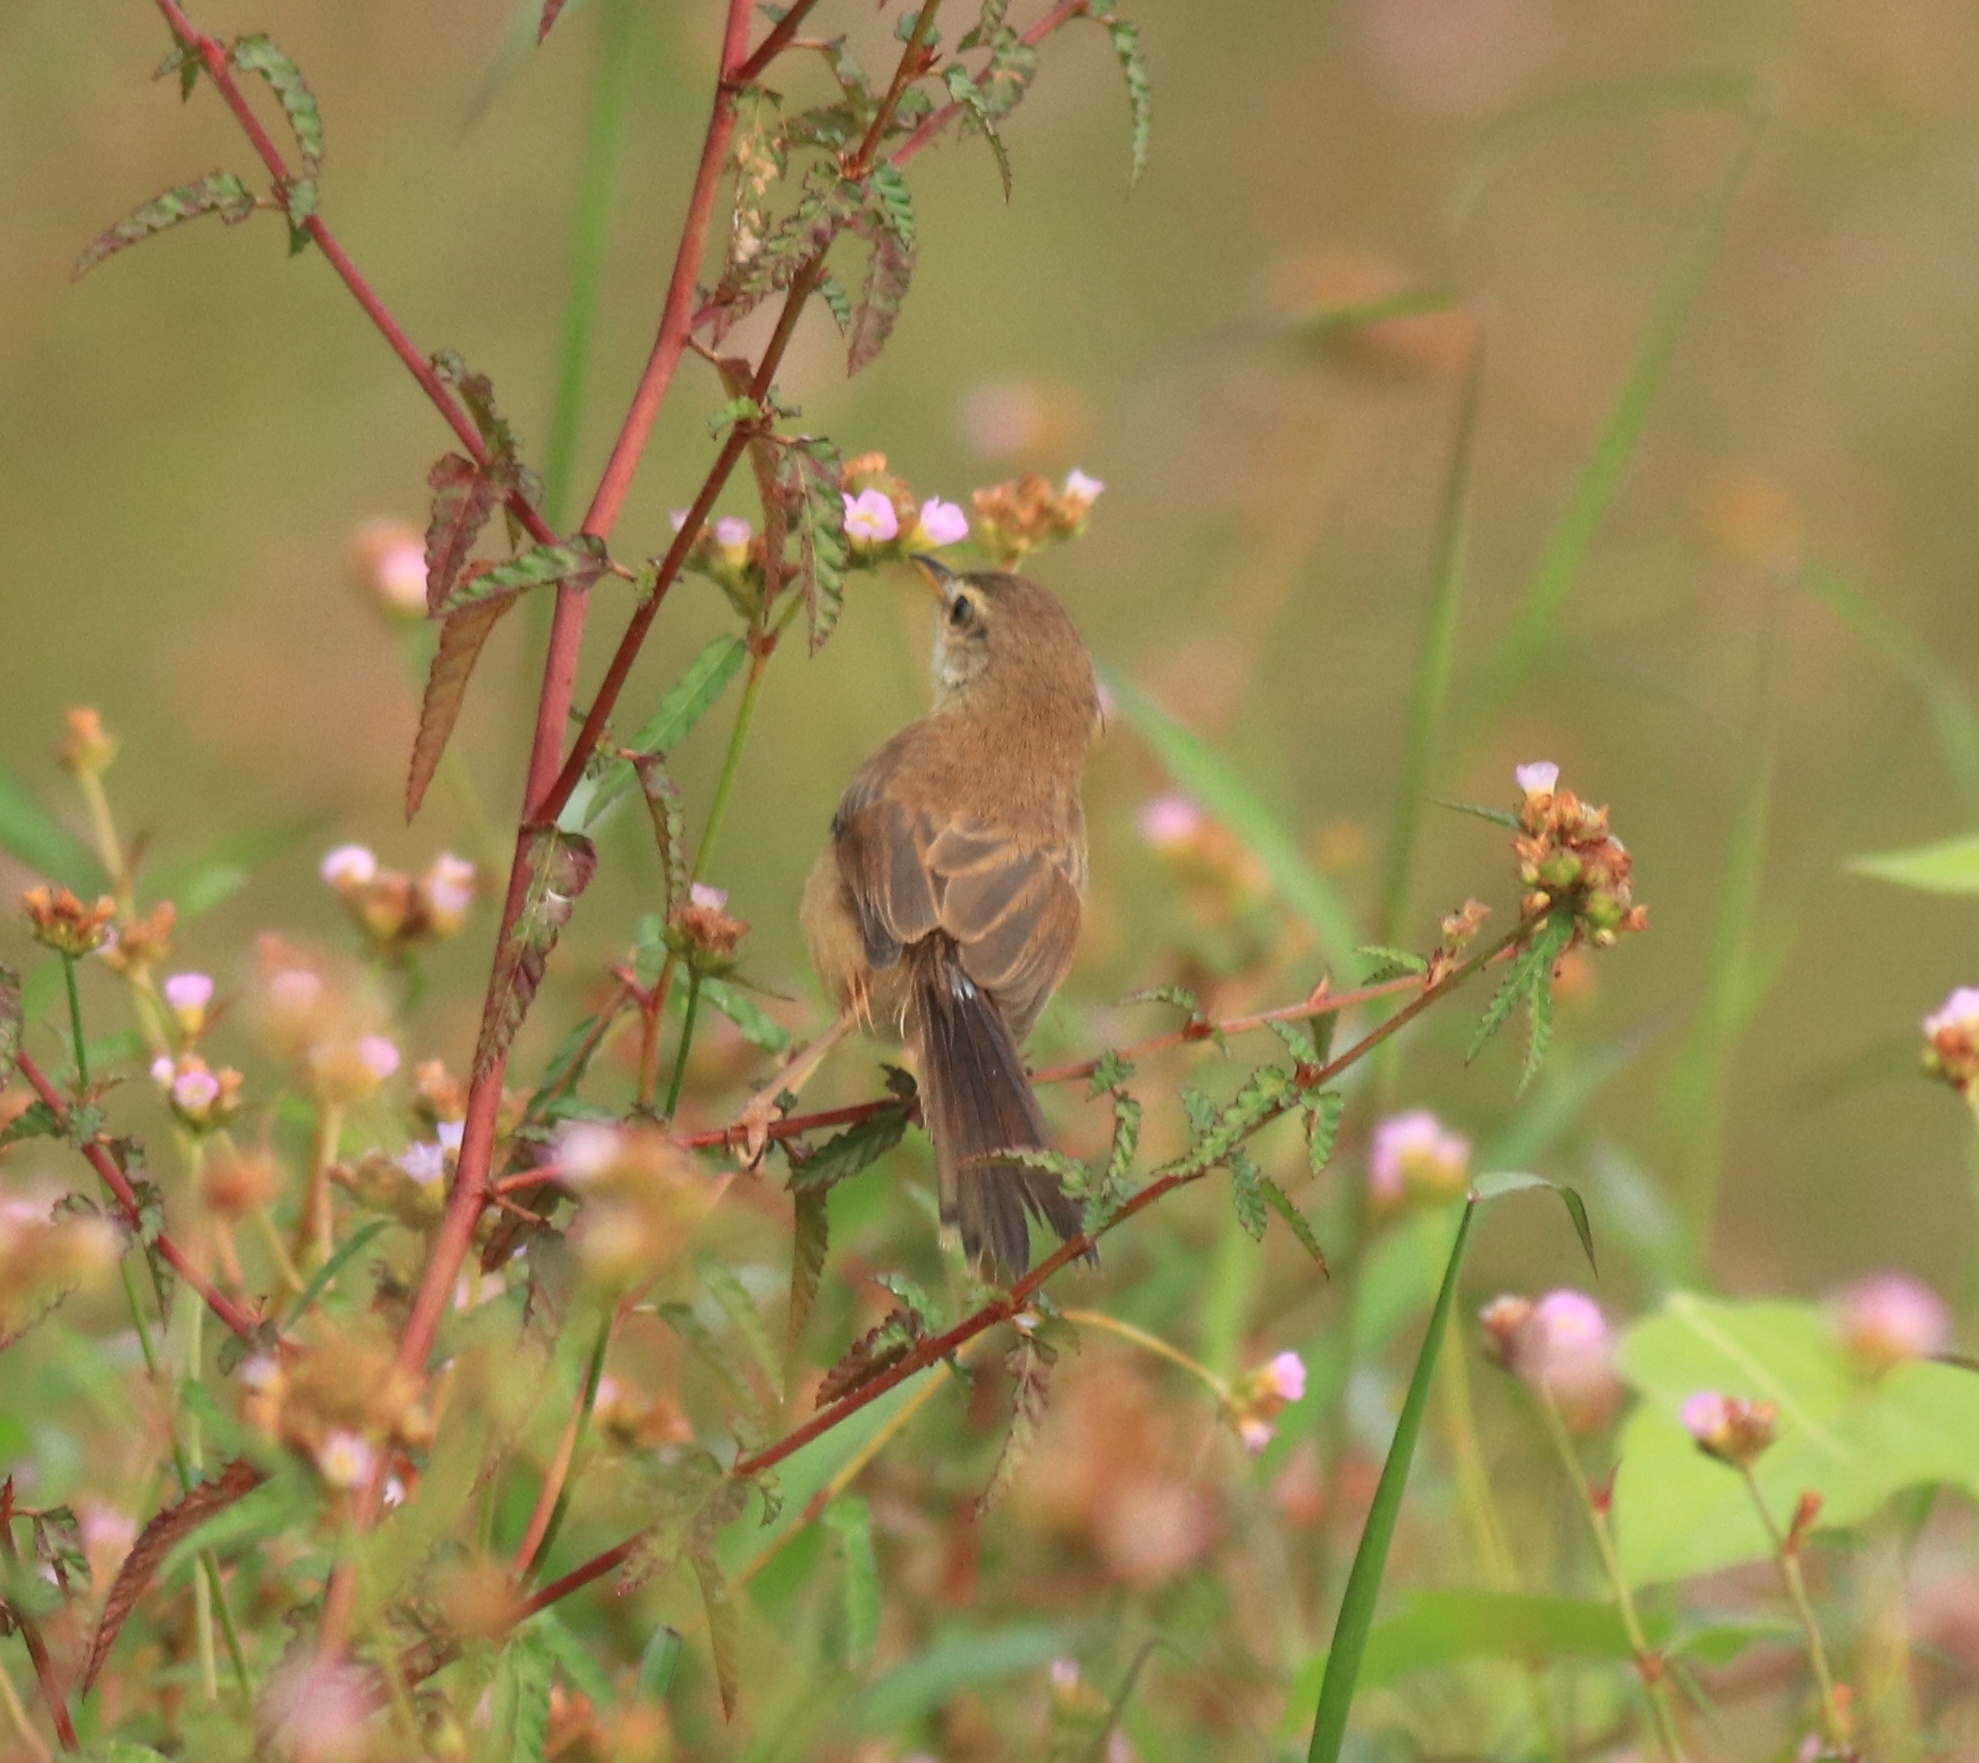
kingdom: Animalia
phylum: Chordata
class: Aves
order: Passeriformes
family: Cisticolidae
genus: Prinia
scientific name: Prinia inornata
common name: Plain prinia
